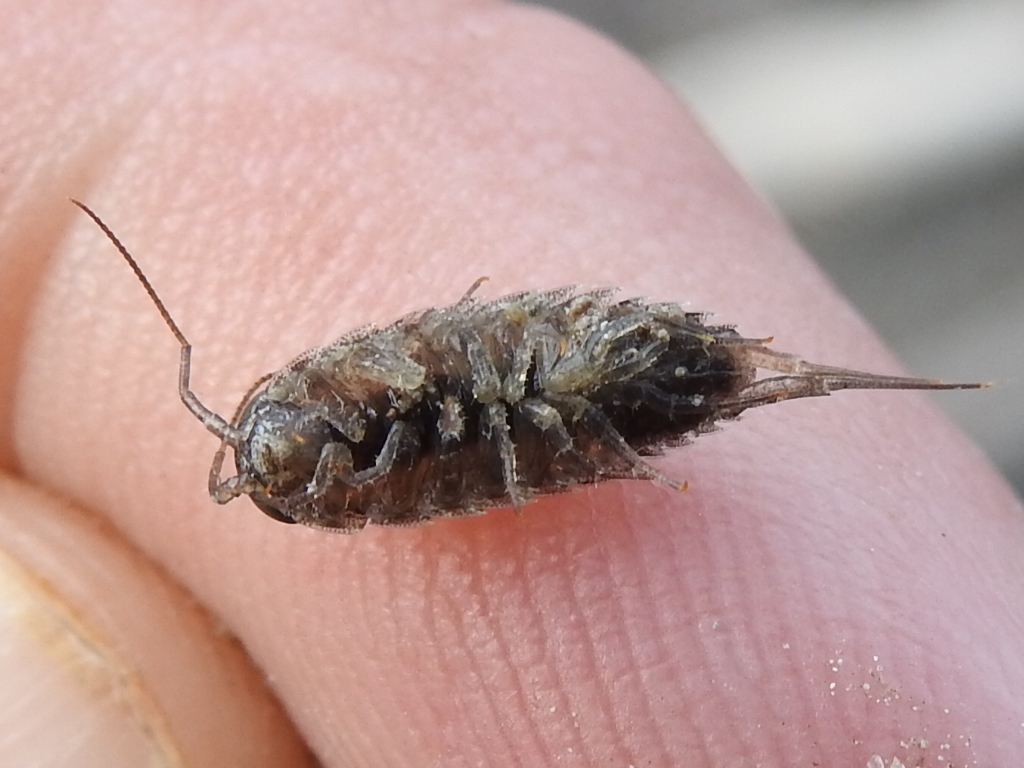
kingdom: Animalia
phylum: Arthropoda
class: Malacostraca
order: Isopoda
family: Ligiidae
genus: Ligia
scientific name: Ligia exotica
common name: Wharf roach
